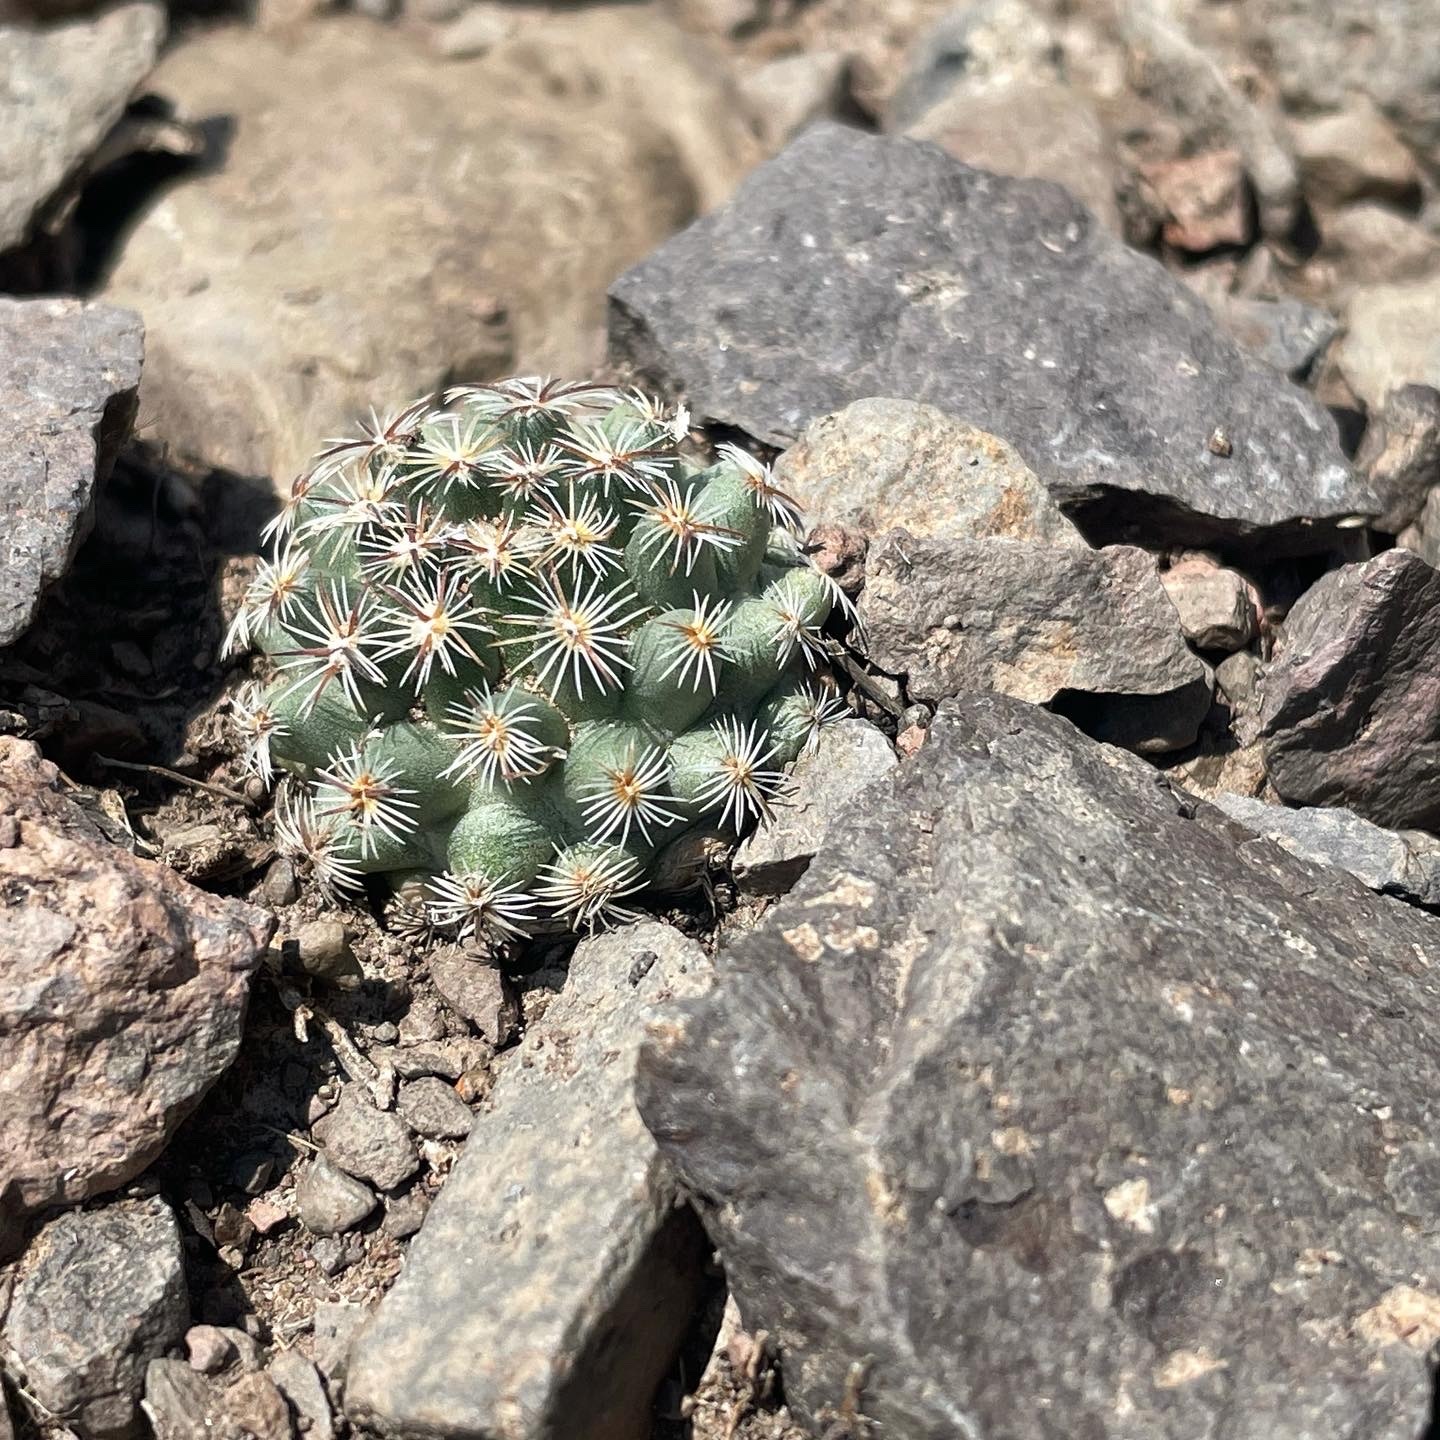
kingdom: Plantae
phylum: Tracheophyta
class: Magnoliopsida
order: Caryophyllales
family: Cactaceae
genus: Pediocactus
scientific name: Pediocactus simpsonii
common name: Simpson's hedgehog cactus
